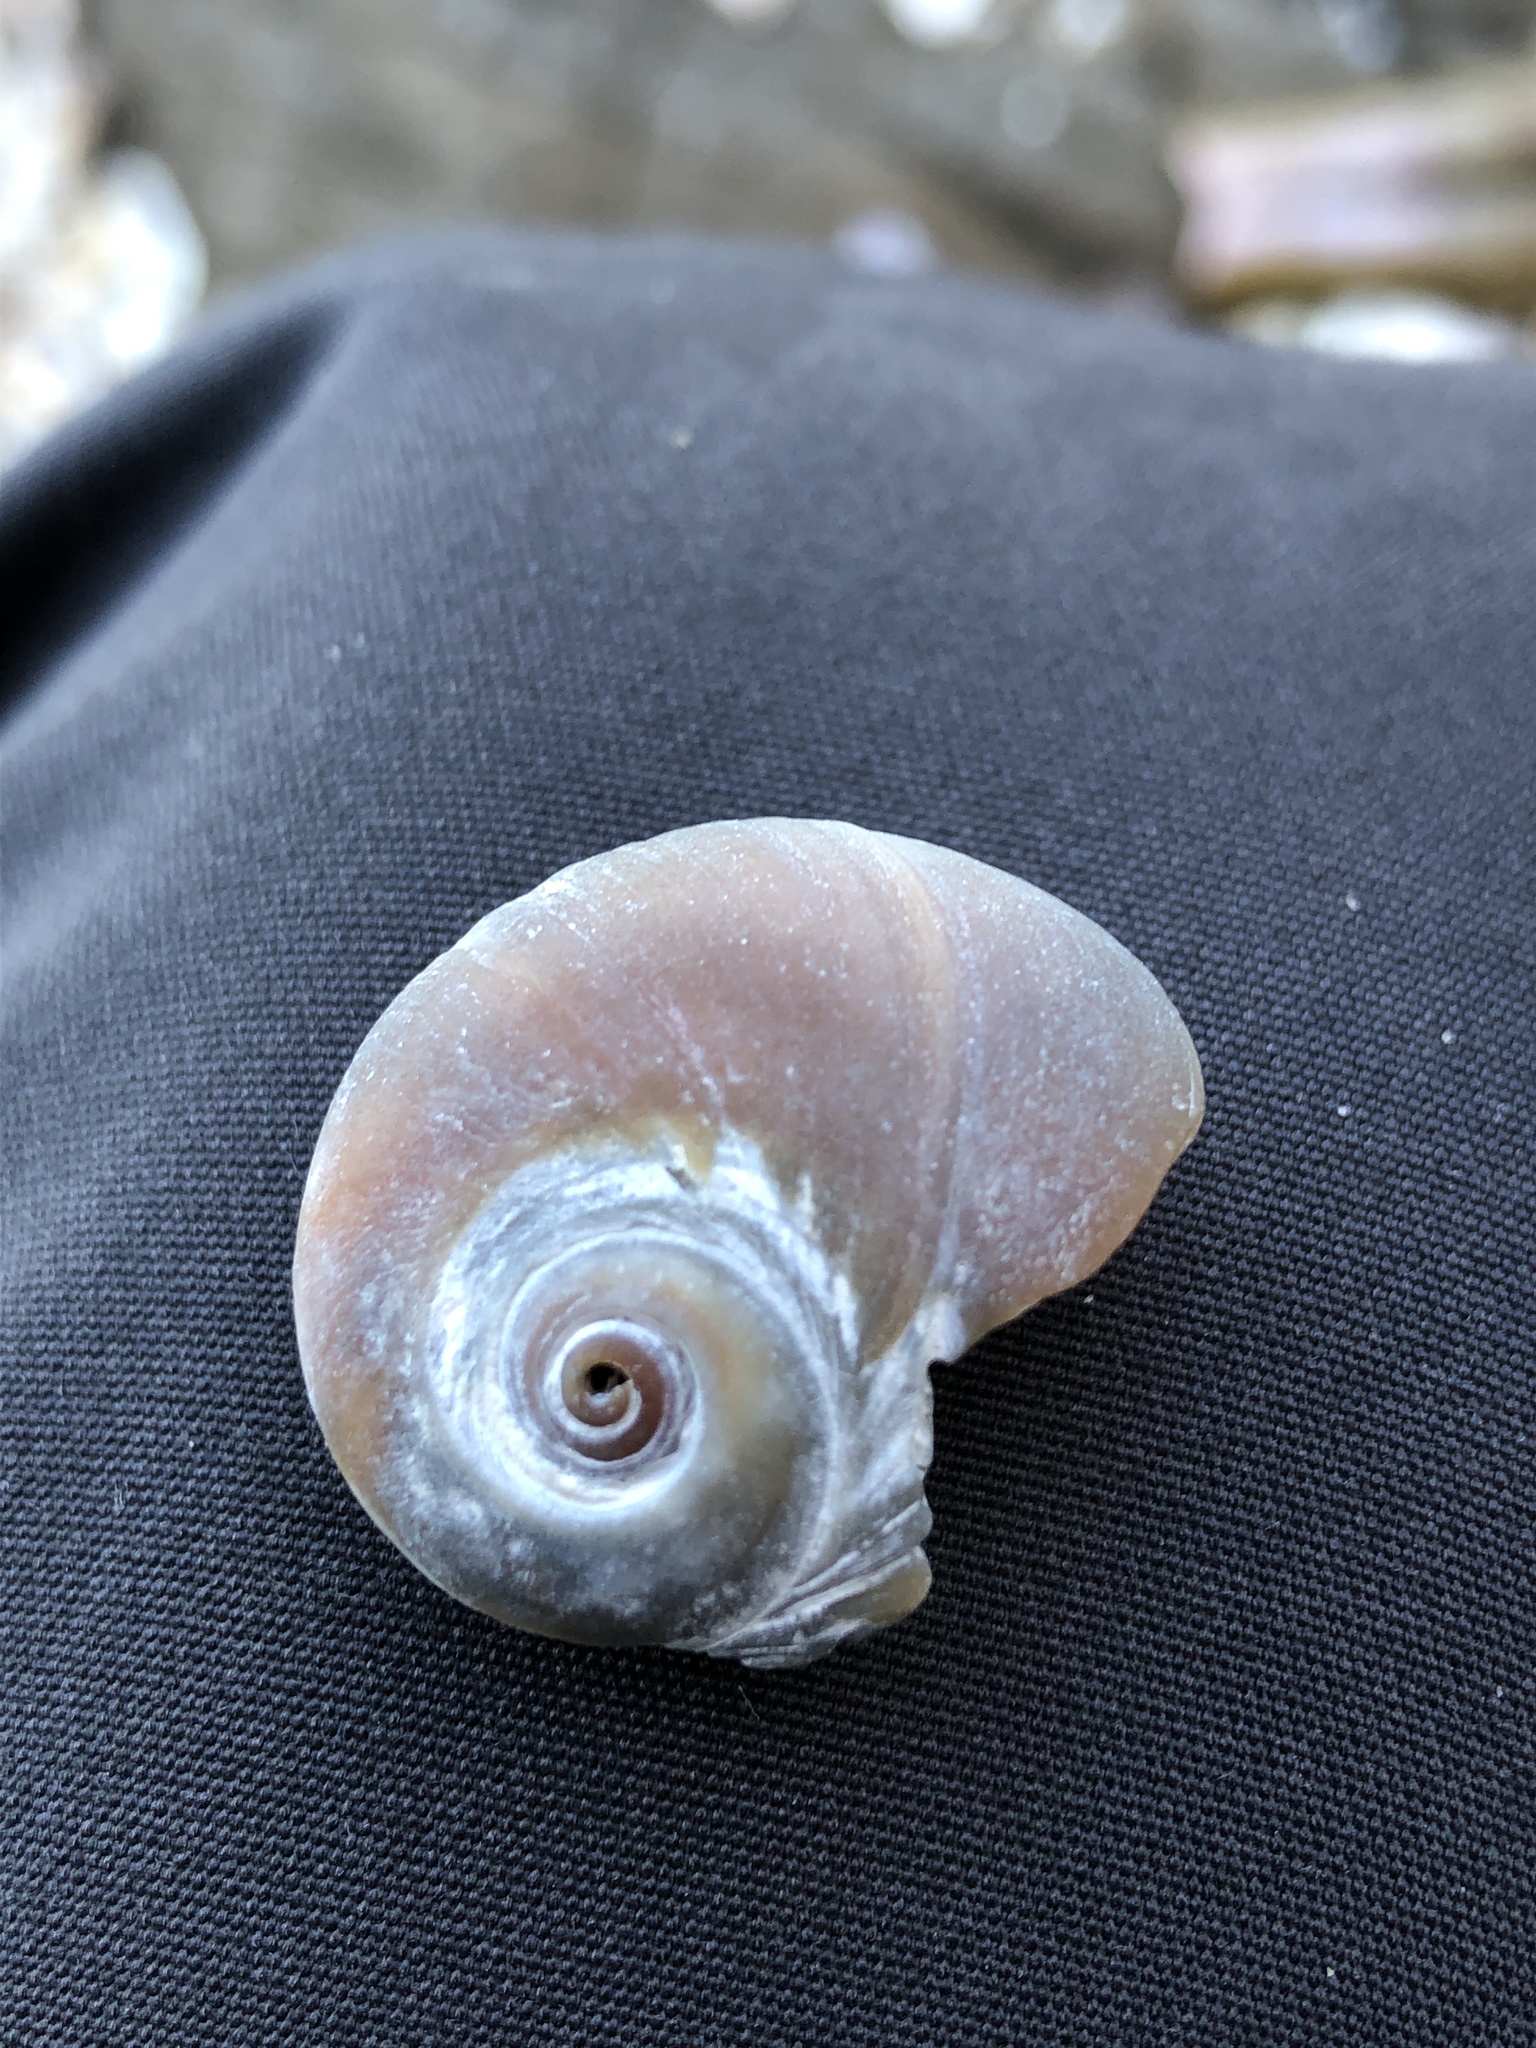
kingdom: Animalia
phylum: Mollusca
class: Gastropoda
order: Littorinimorpha
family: Naticidae
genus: Neverita
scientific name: Neverita didyma
